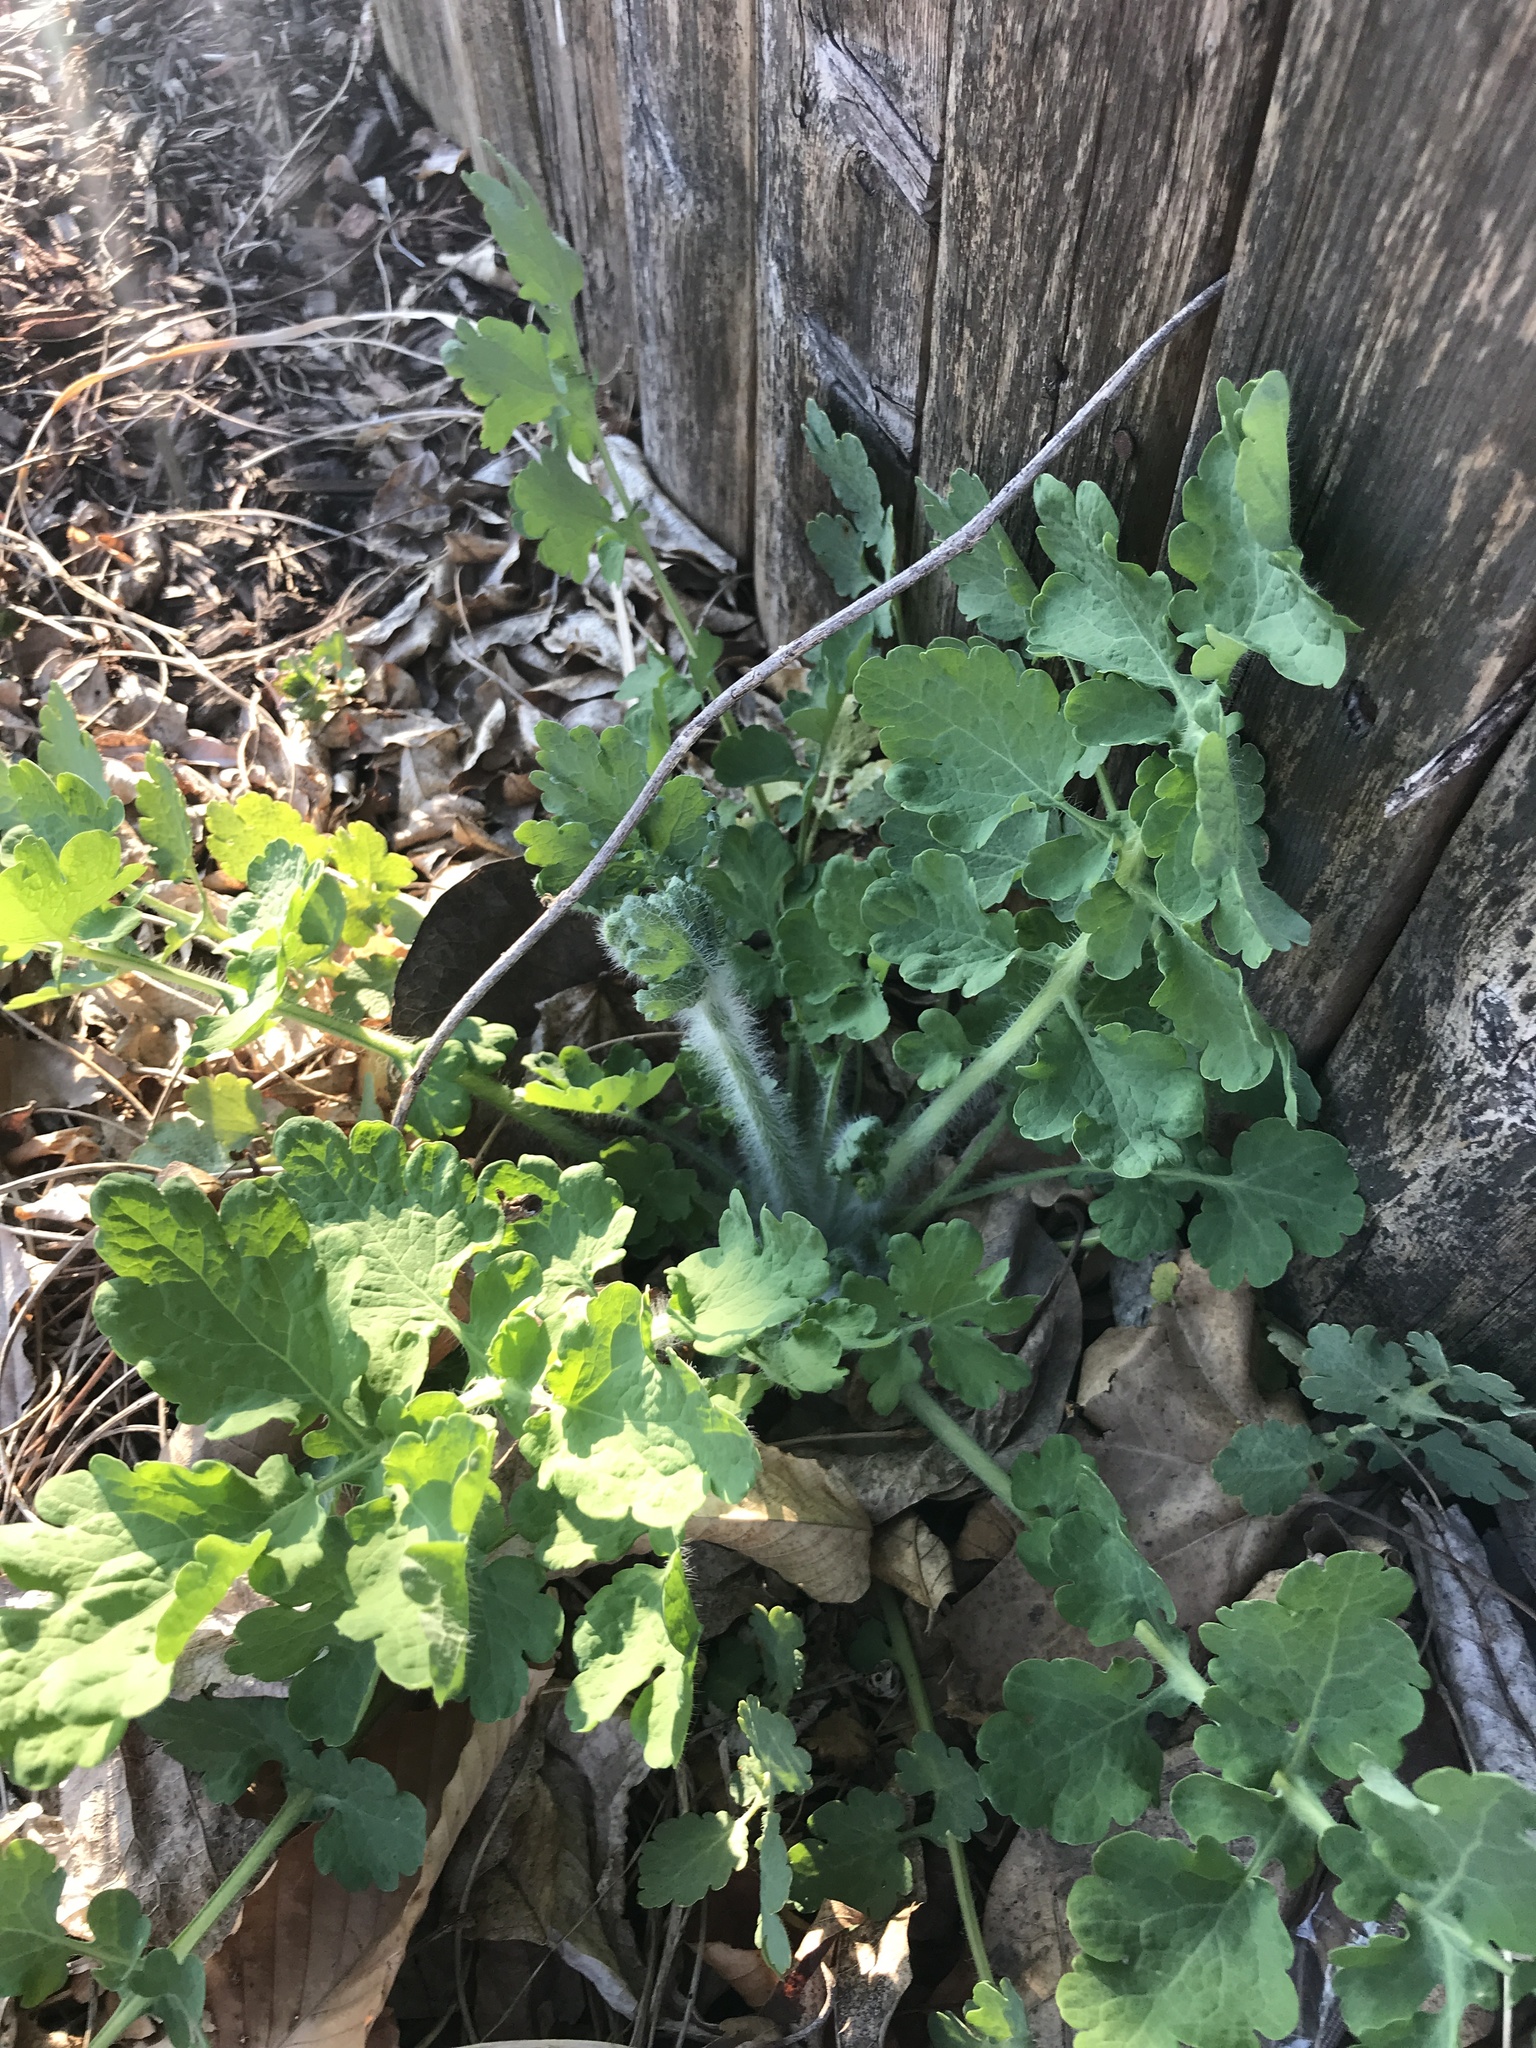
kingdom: Plantae
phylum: Tracheophyta
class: Magnoliopsida
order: Ranunculales
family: Papaveraceae
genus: Chelidonium
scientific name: Chelidonium majus
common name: Greater celandine
